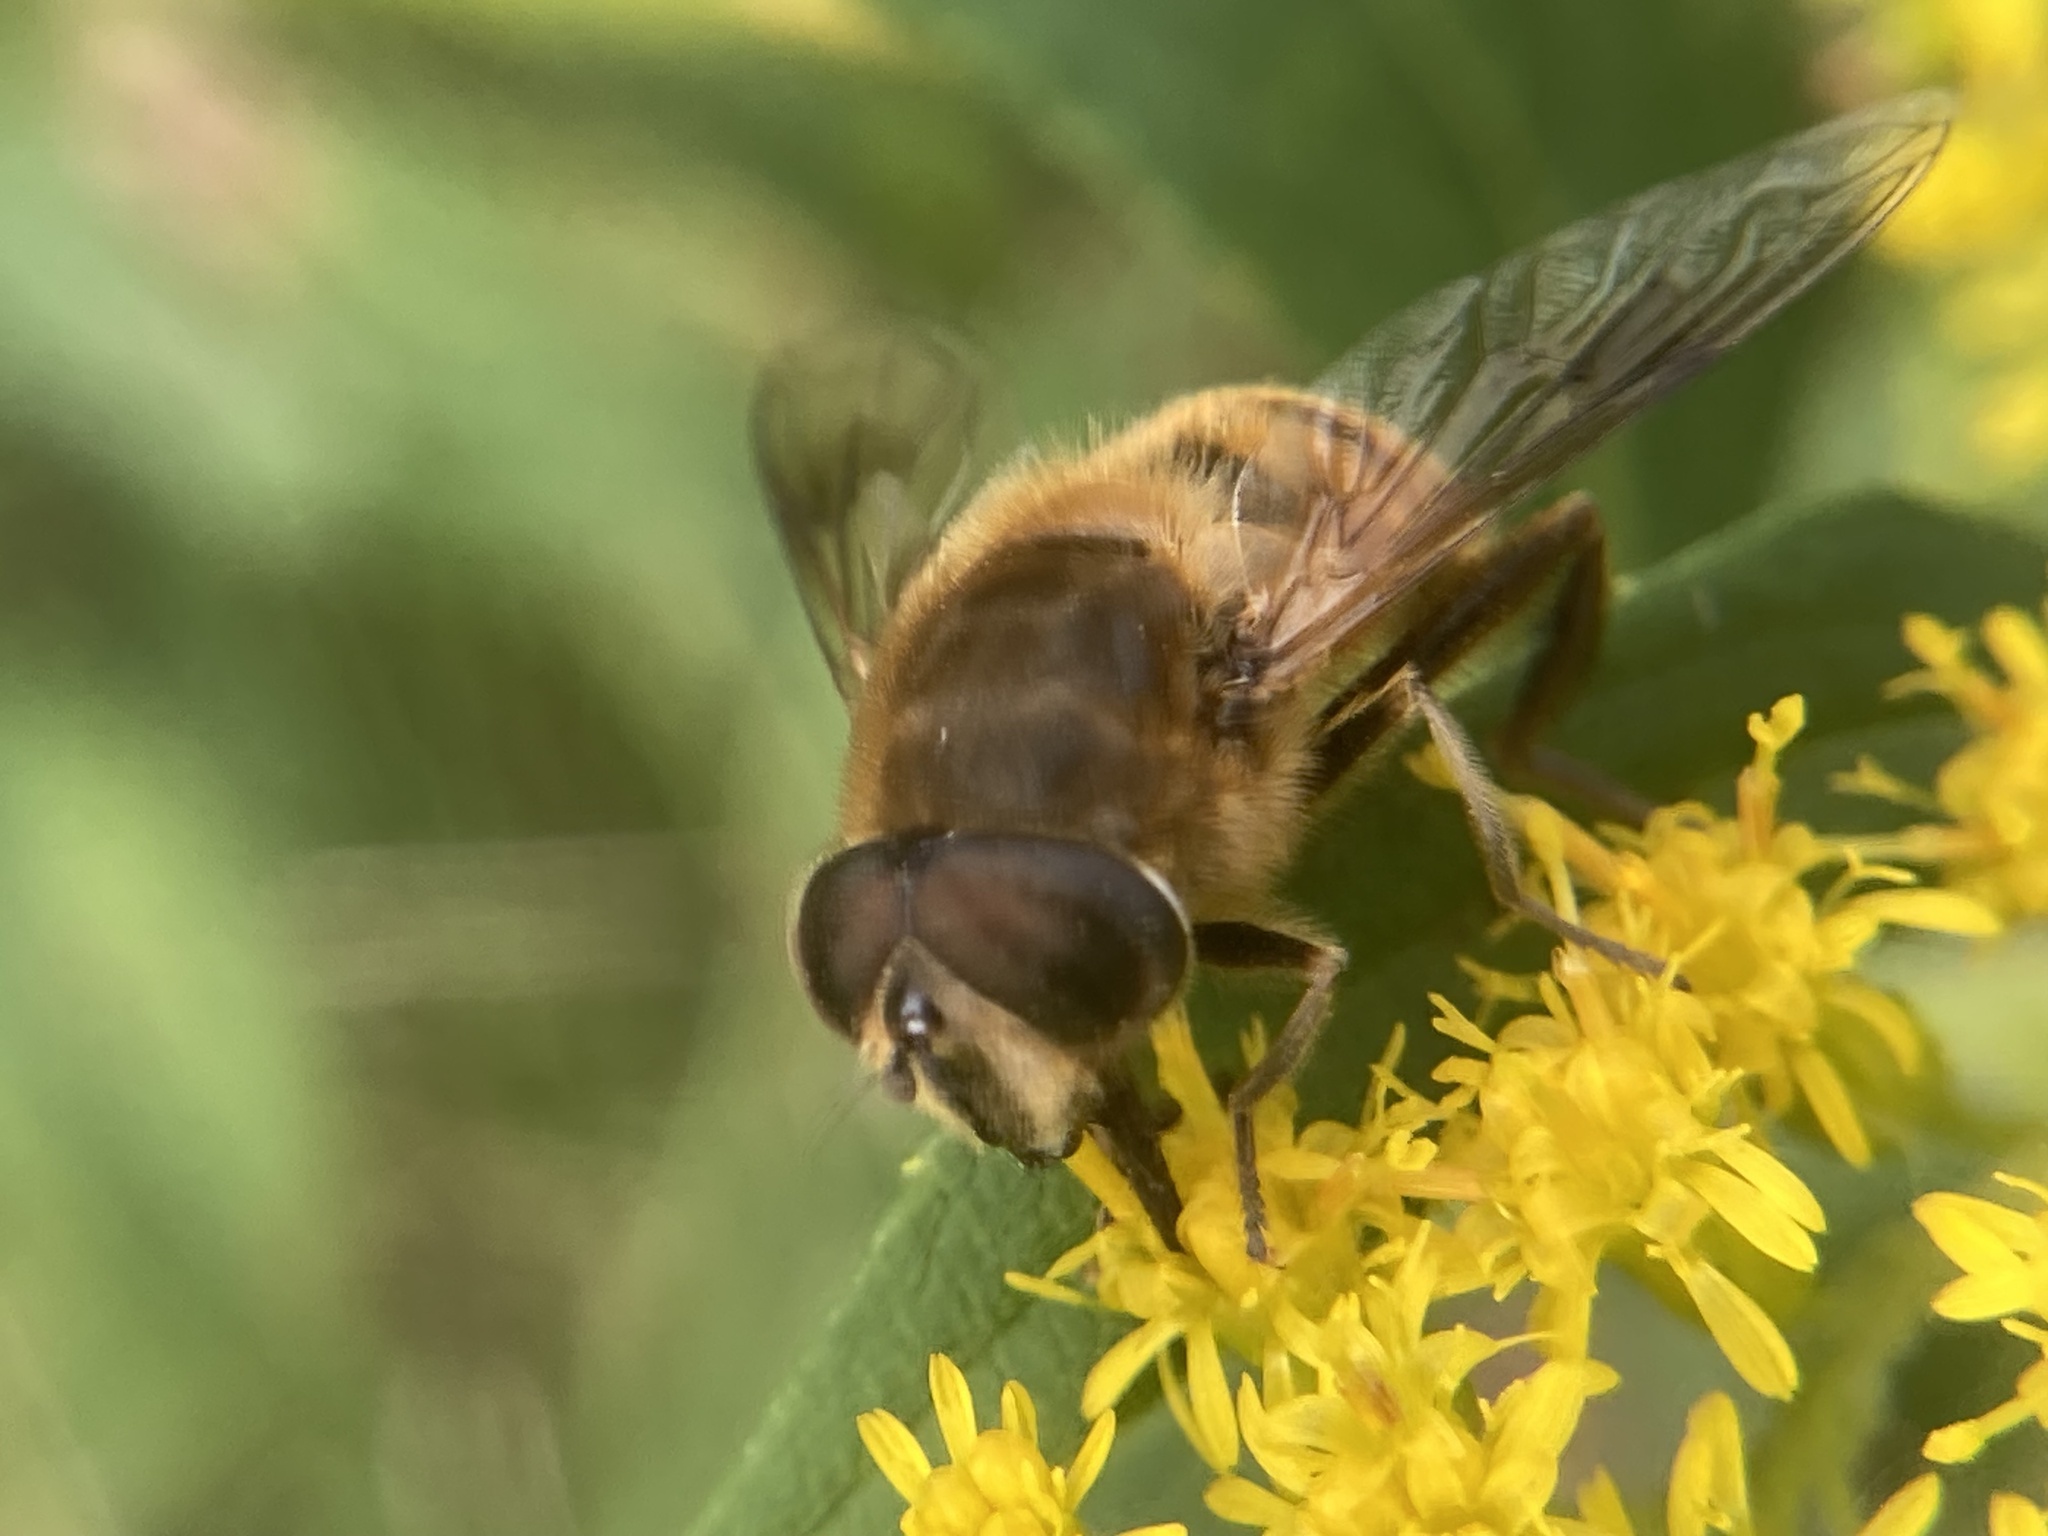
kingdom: Animalia
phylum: Arthropoda
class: Insecta
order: Diptera
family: Syrphidae
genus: Eristalis
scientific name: Eristalis tenax
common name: Drone fly
